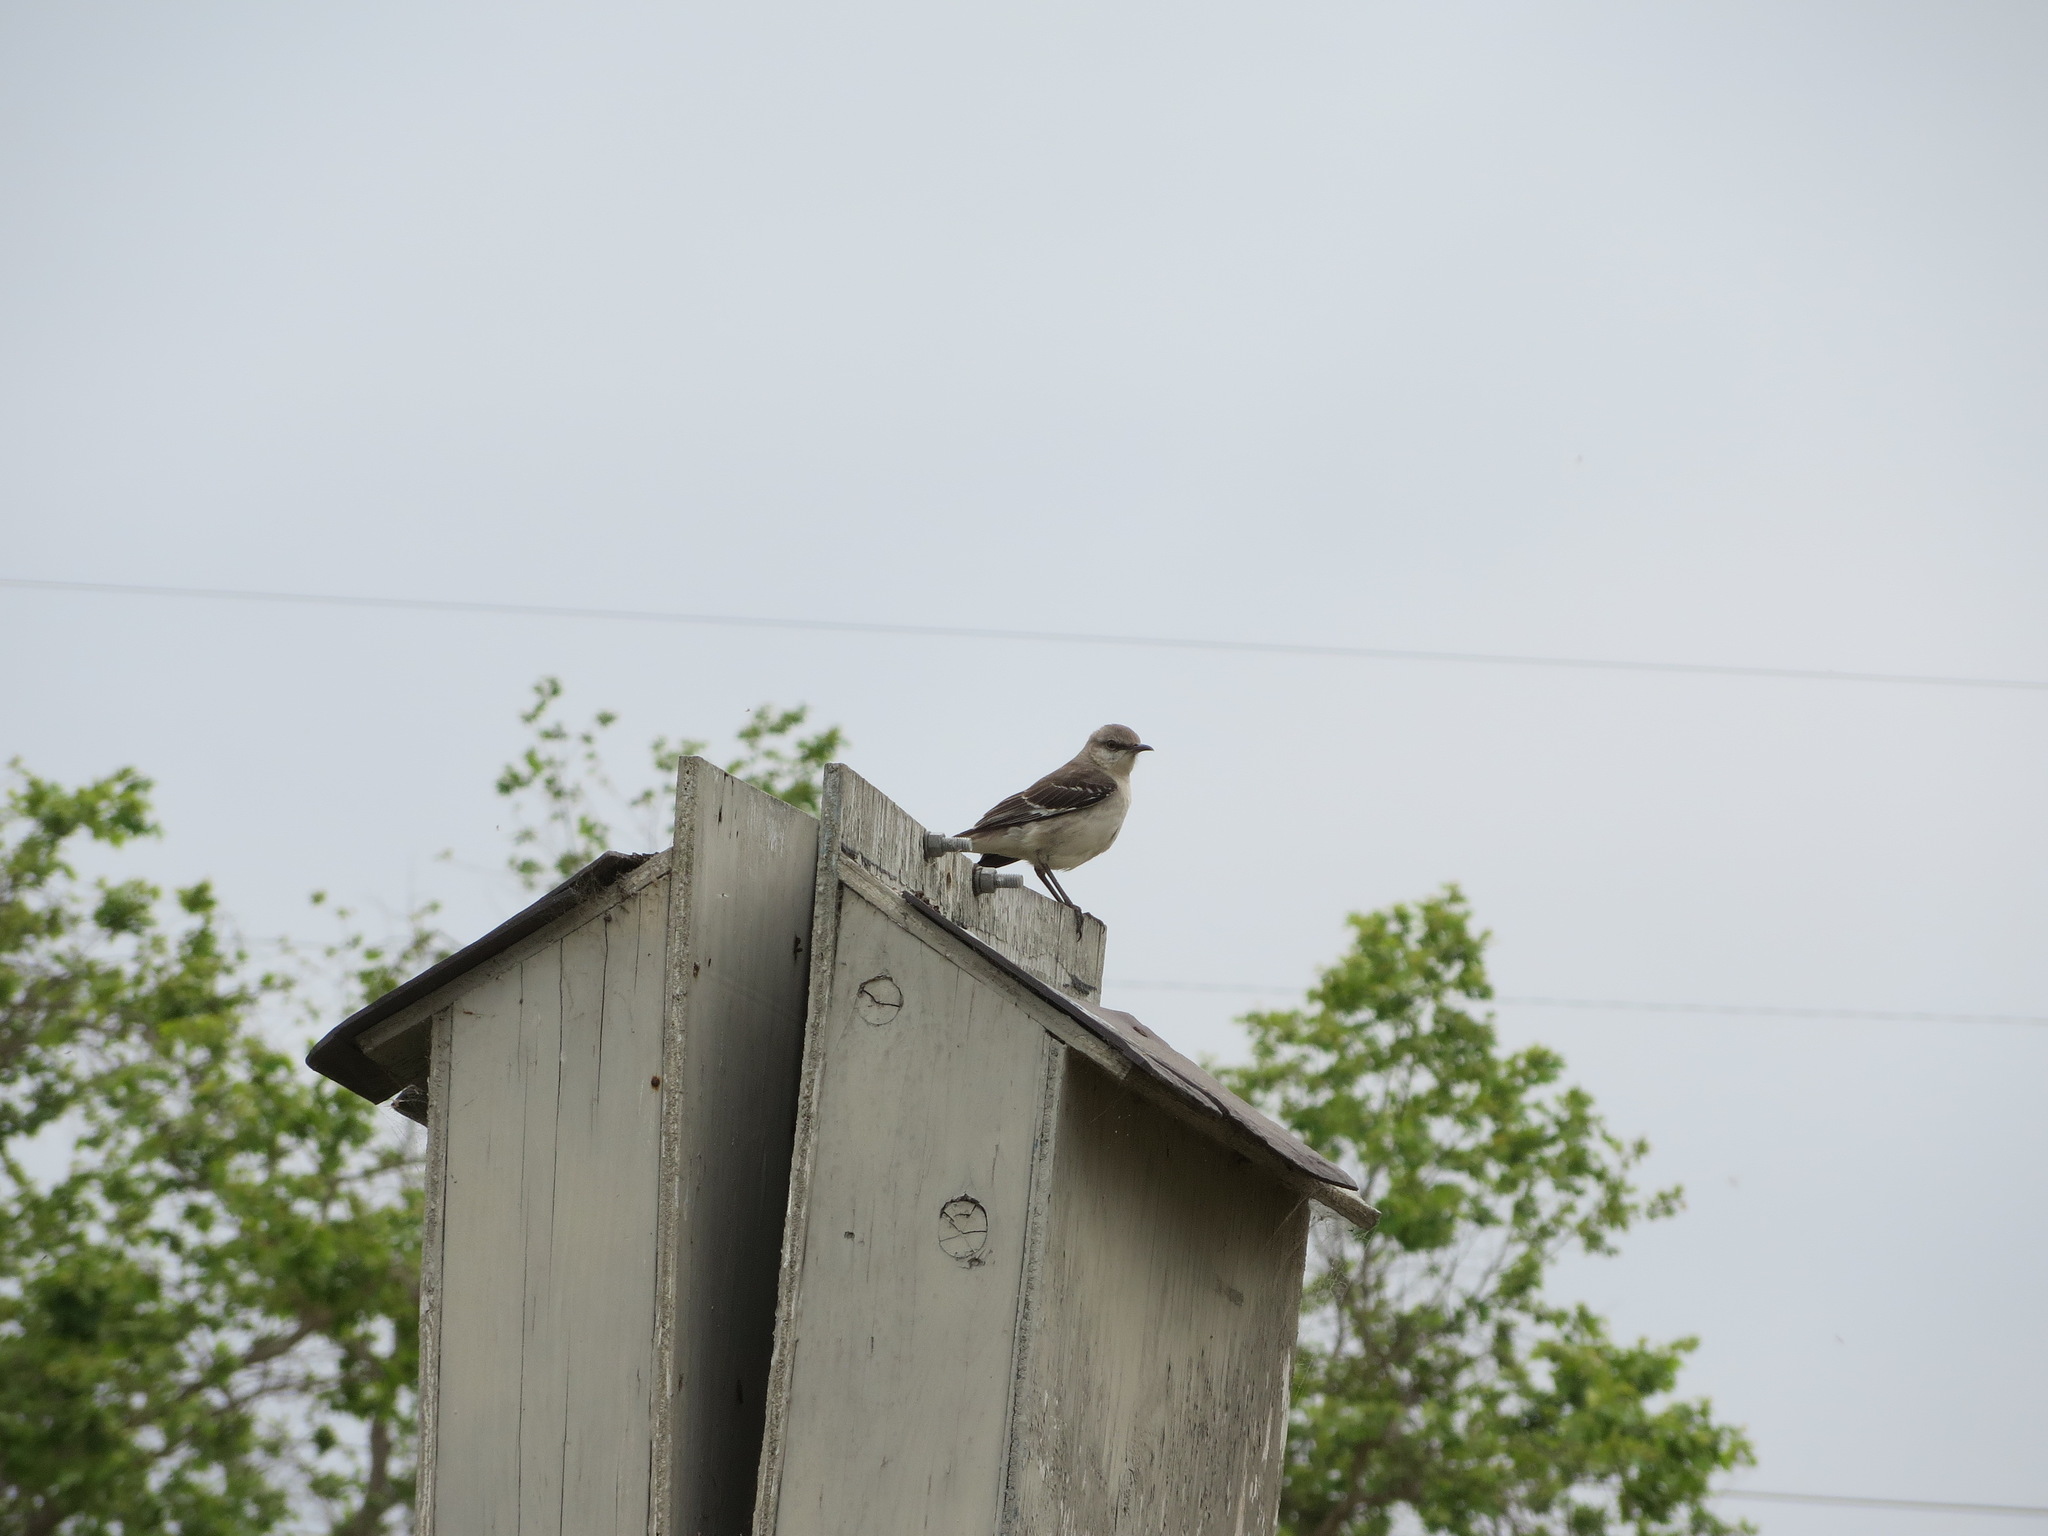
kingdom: Animalia
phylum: Chordata
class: Aves
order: Passeriformes
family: Mimidae
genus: Mimus
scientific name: Mimus polyglottos
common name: Northern mockingbird
